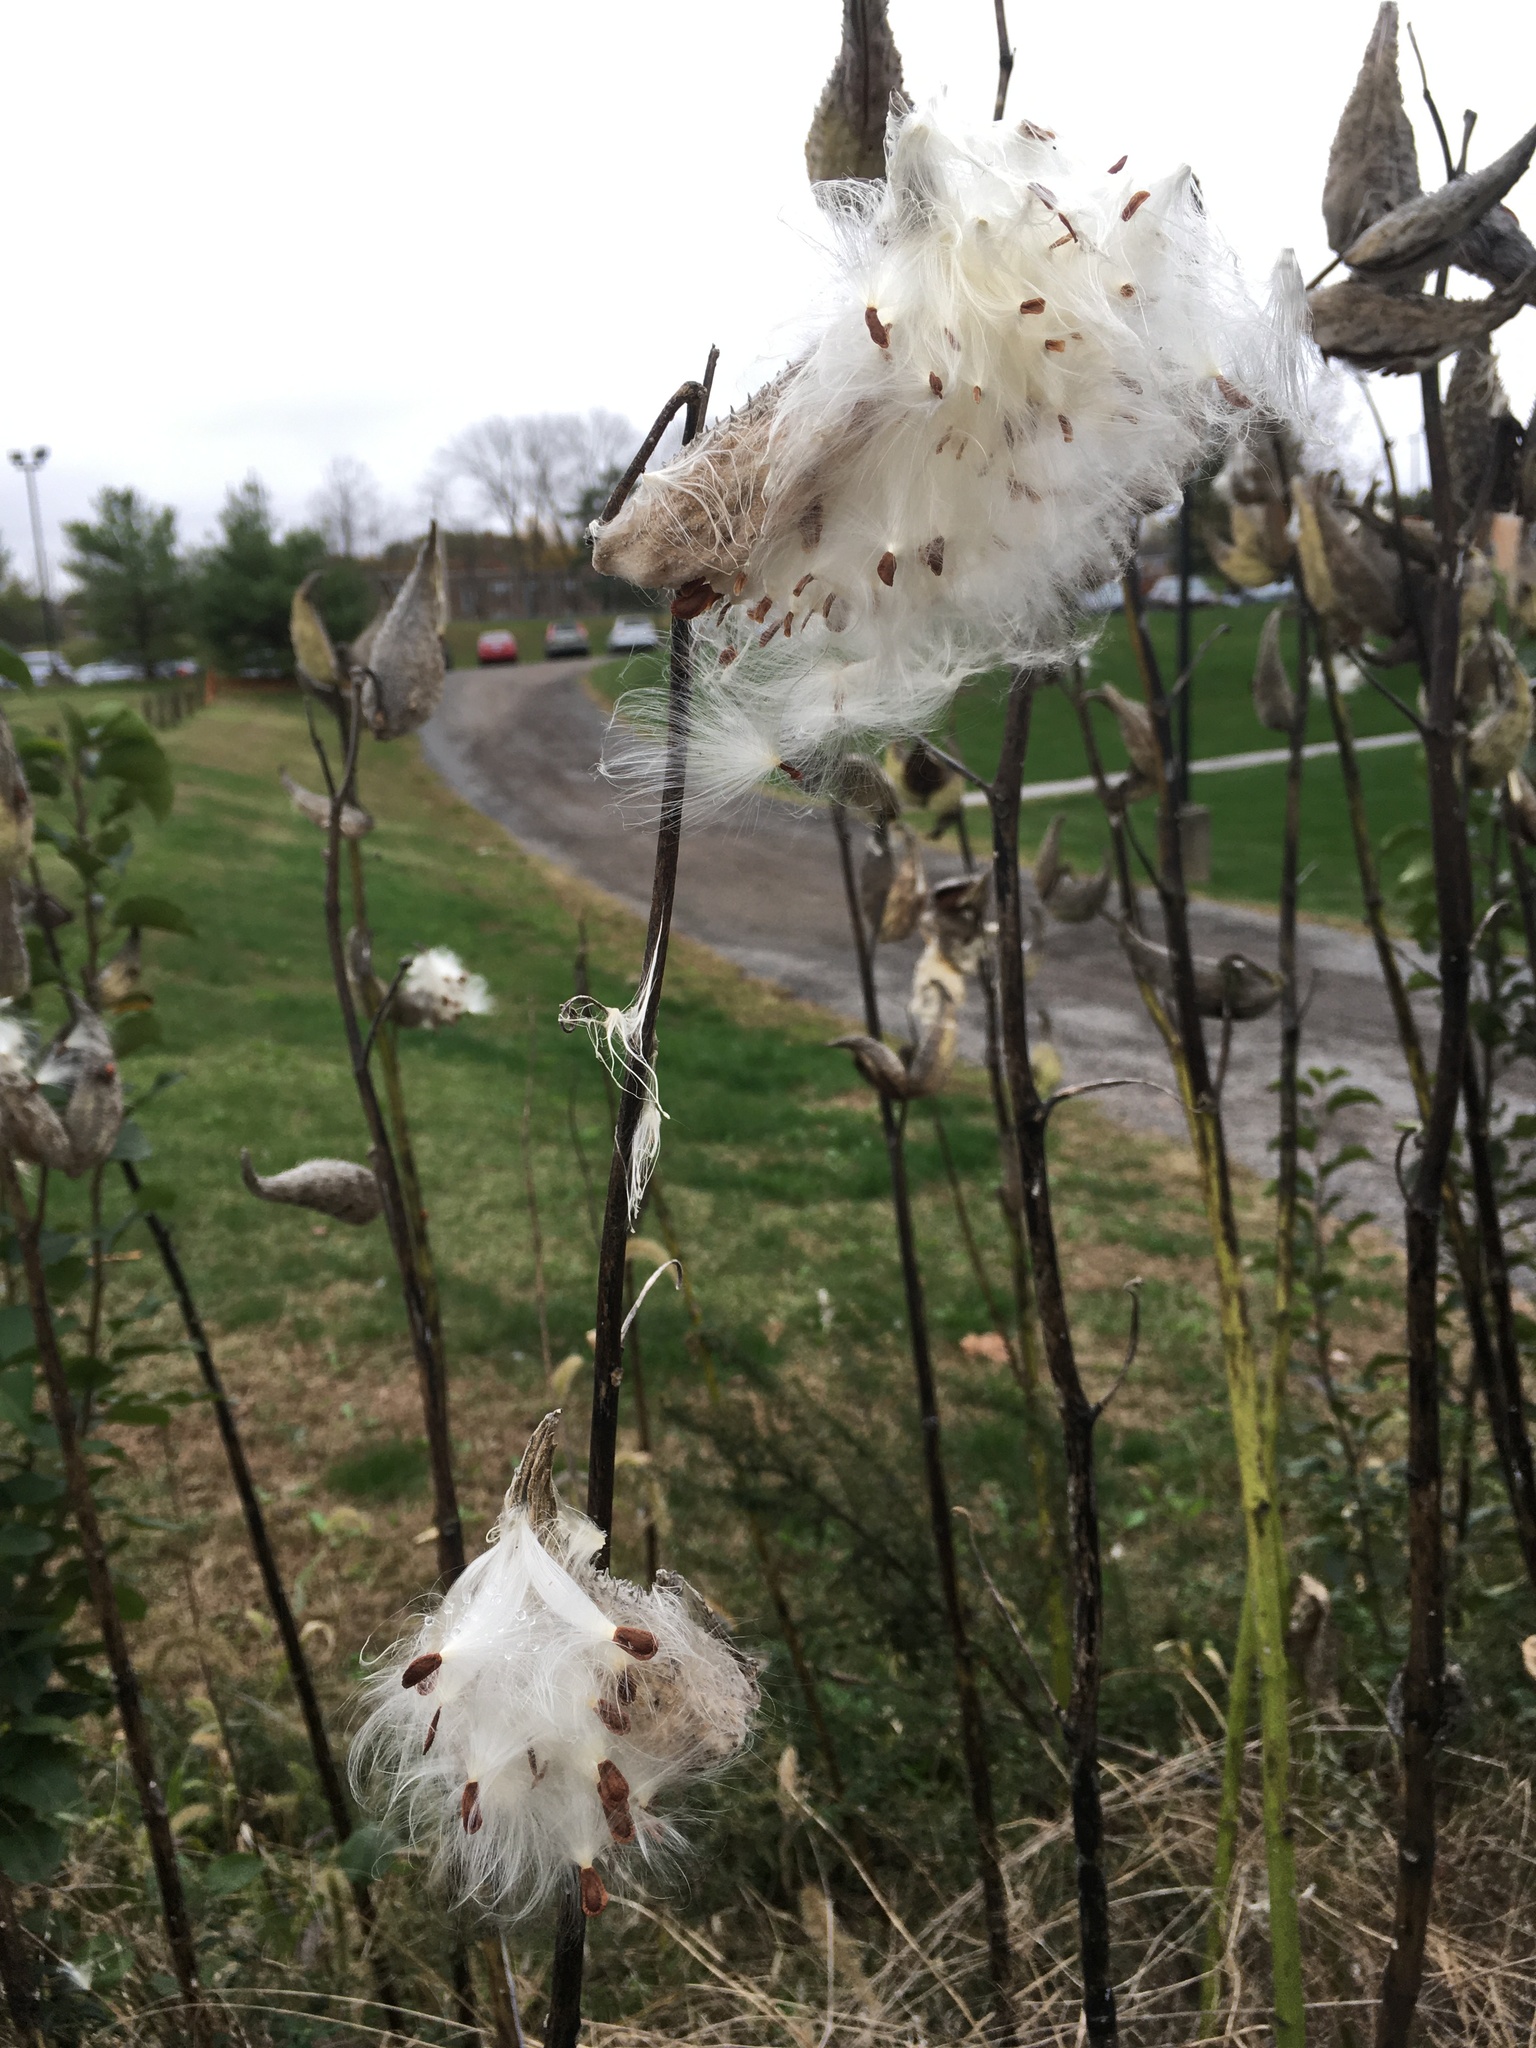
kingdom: Plantae
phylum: Tracheophyta
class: Magnoliopsida
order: Gentianales
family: Apocynaceae
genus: Asclepias
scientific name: Asclepias syriaca
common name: Common milkweed
